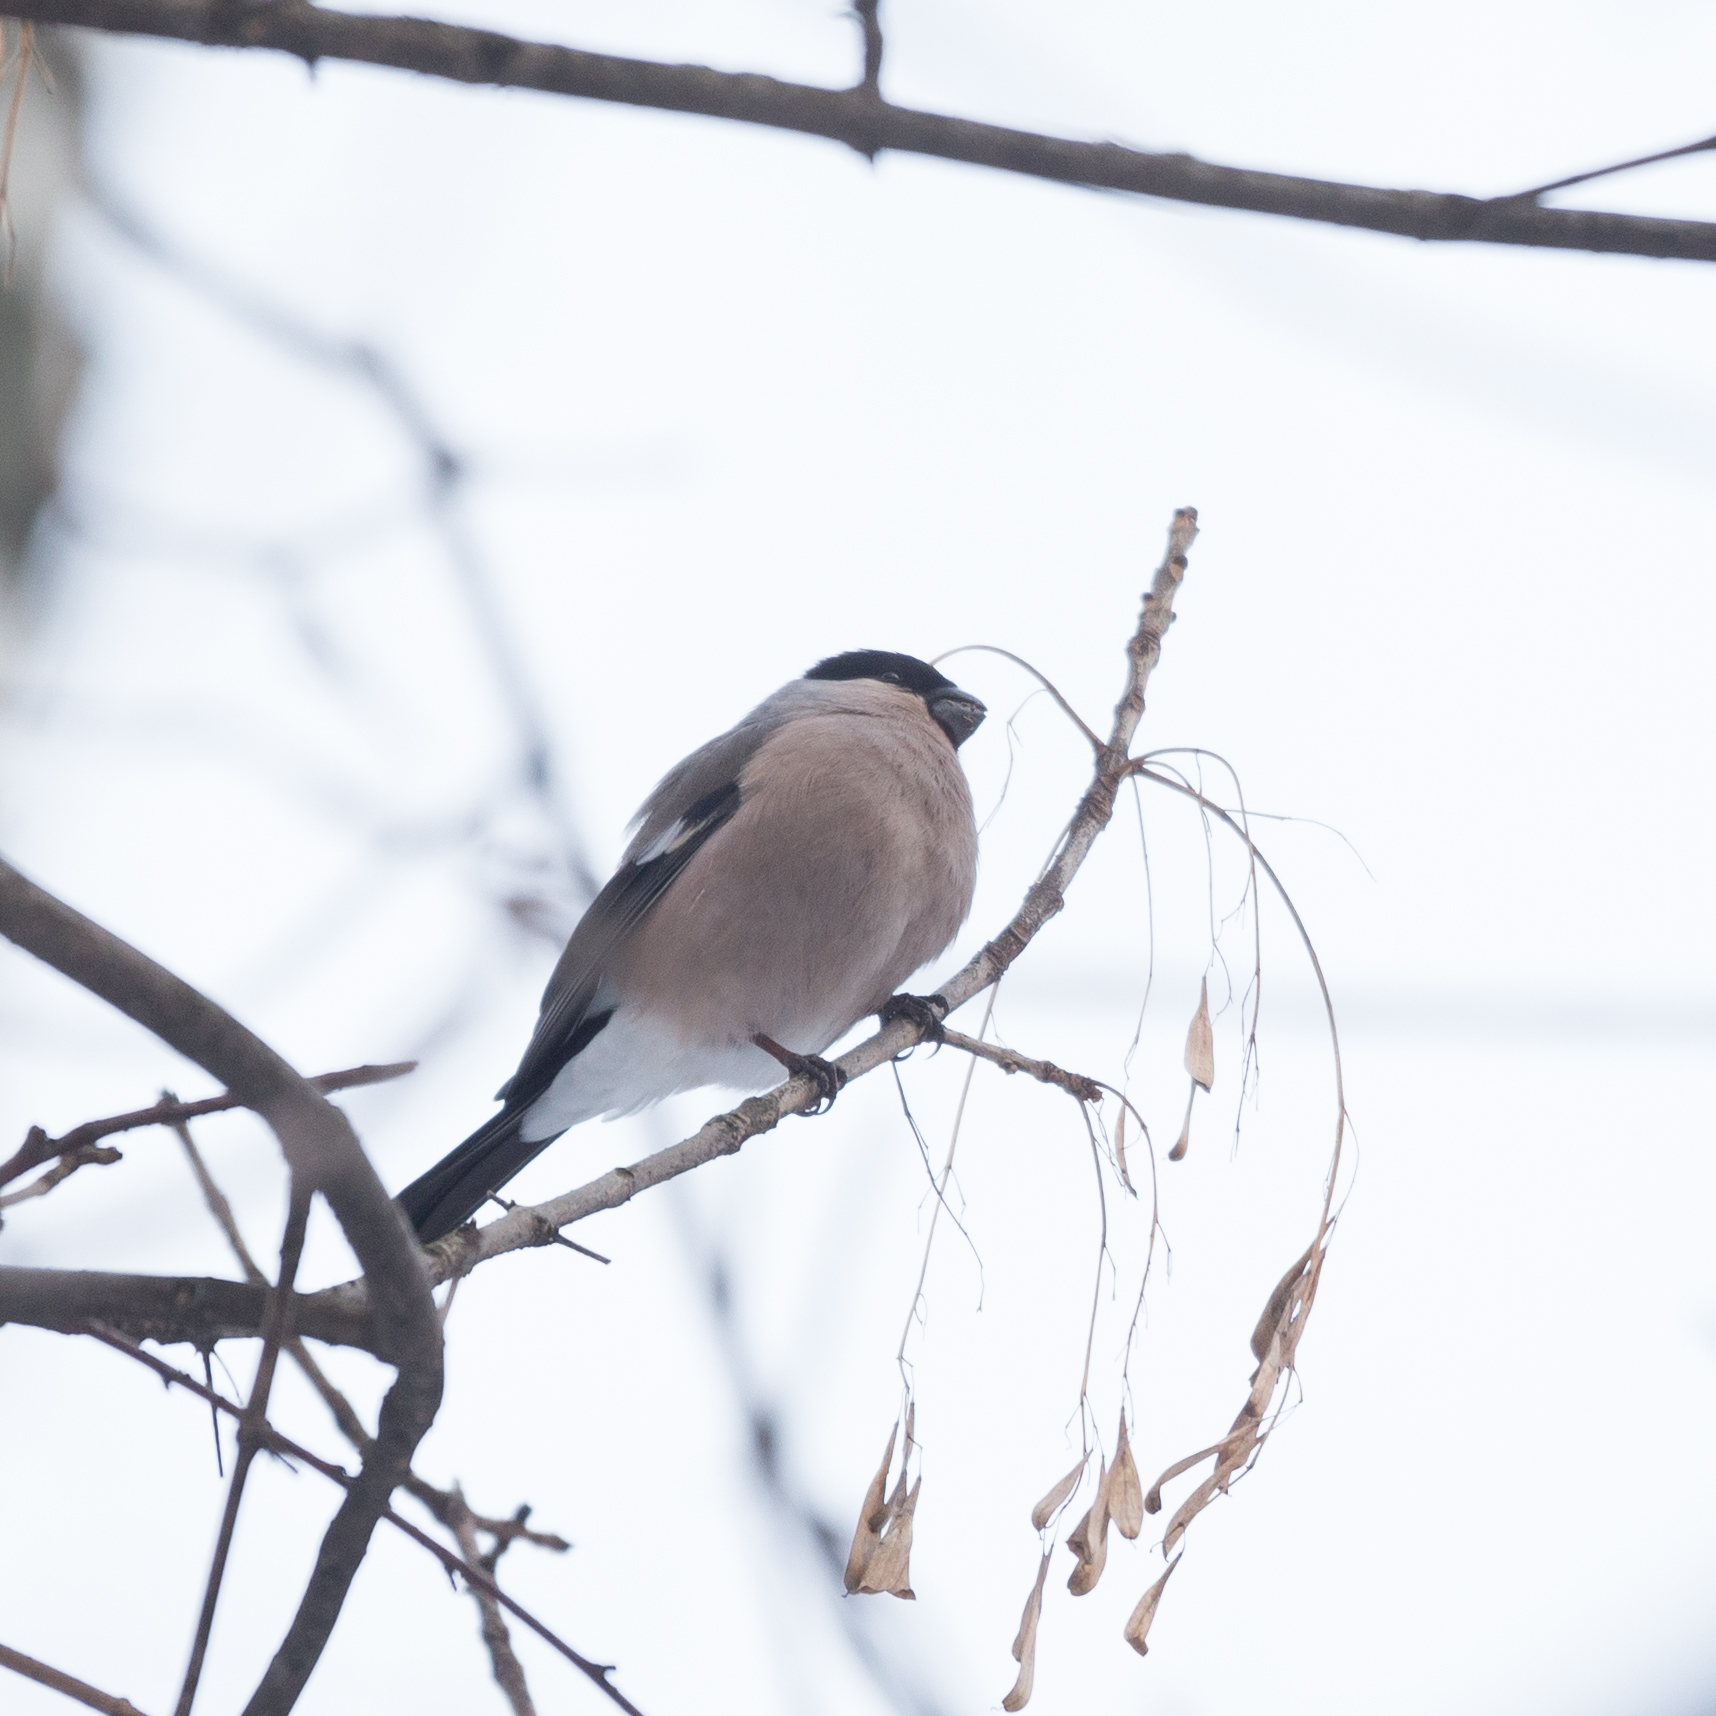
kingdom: Animalia
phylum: Chordata
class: Aves
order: Passeriformes
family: Fringillidae
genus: Pyrrhula
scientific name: Pyrrhula pyrrhula
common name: Eurasian bullfinch
